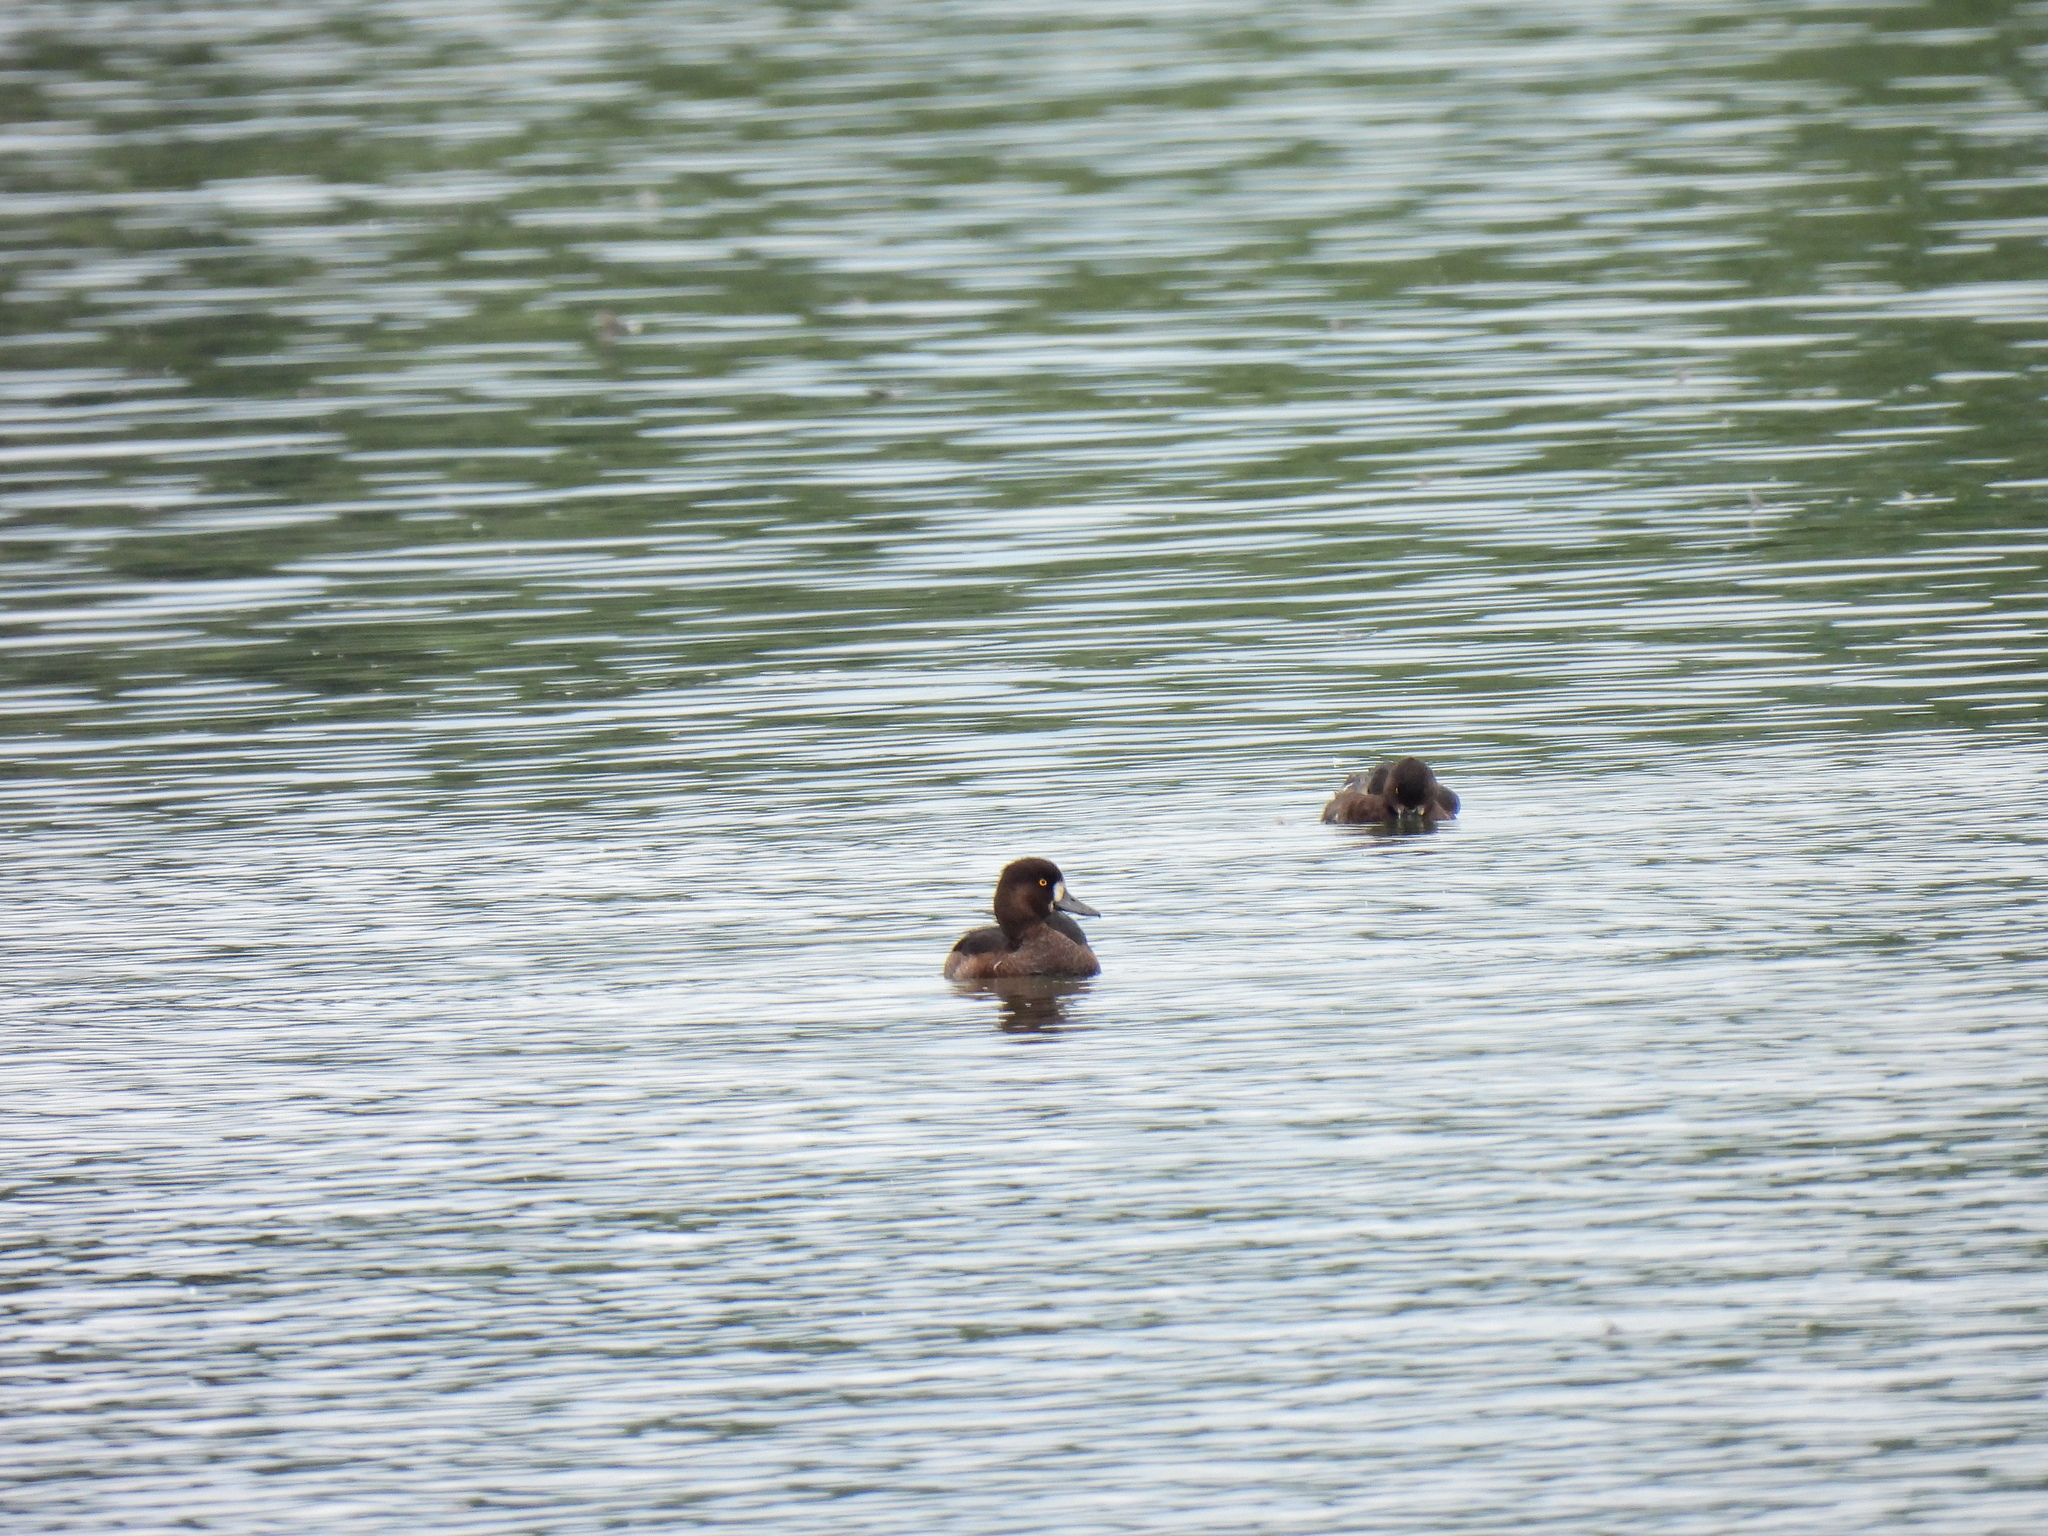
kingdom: Animalia
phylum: Chordata
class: Aves
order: Anseriformes
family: Anatidae
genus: Aythya
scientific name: Aythya fuligula
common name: Tufted duck
